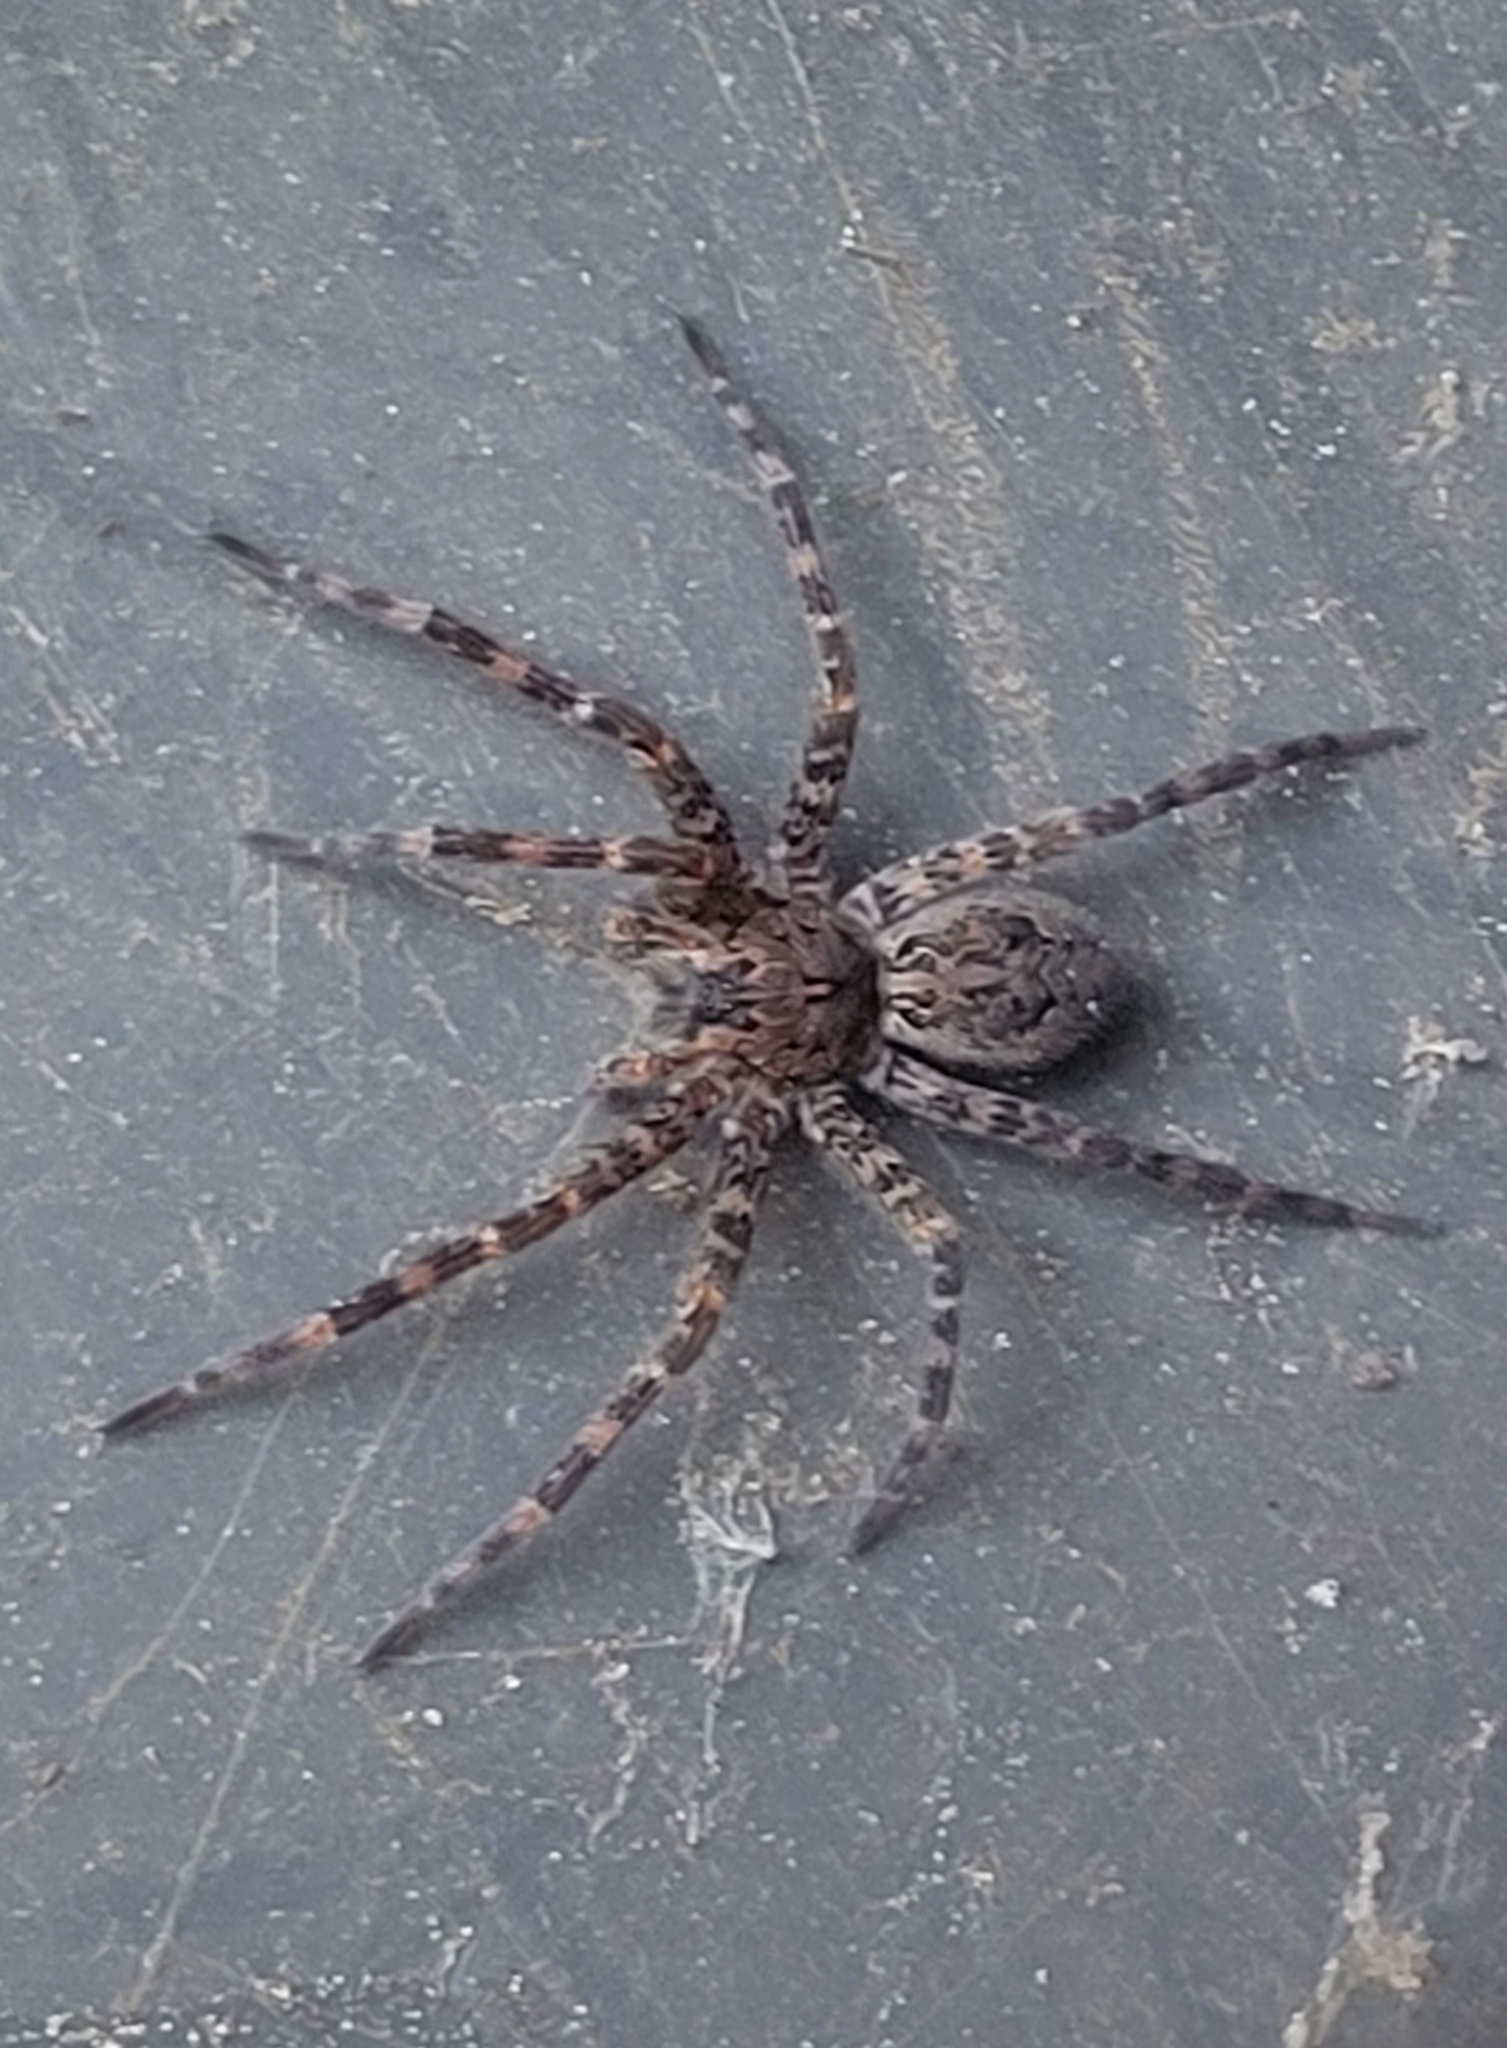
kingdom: Animalia
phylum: Arthropoda
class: Arachnida
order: Araneae
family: Pisauridae
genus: Dolomedes
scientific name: Dolomedes tenebrosus
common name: Dark fishing spider
